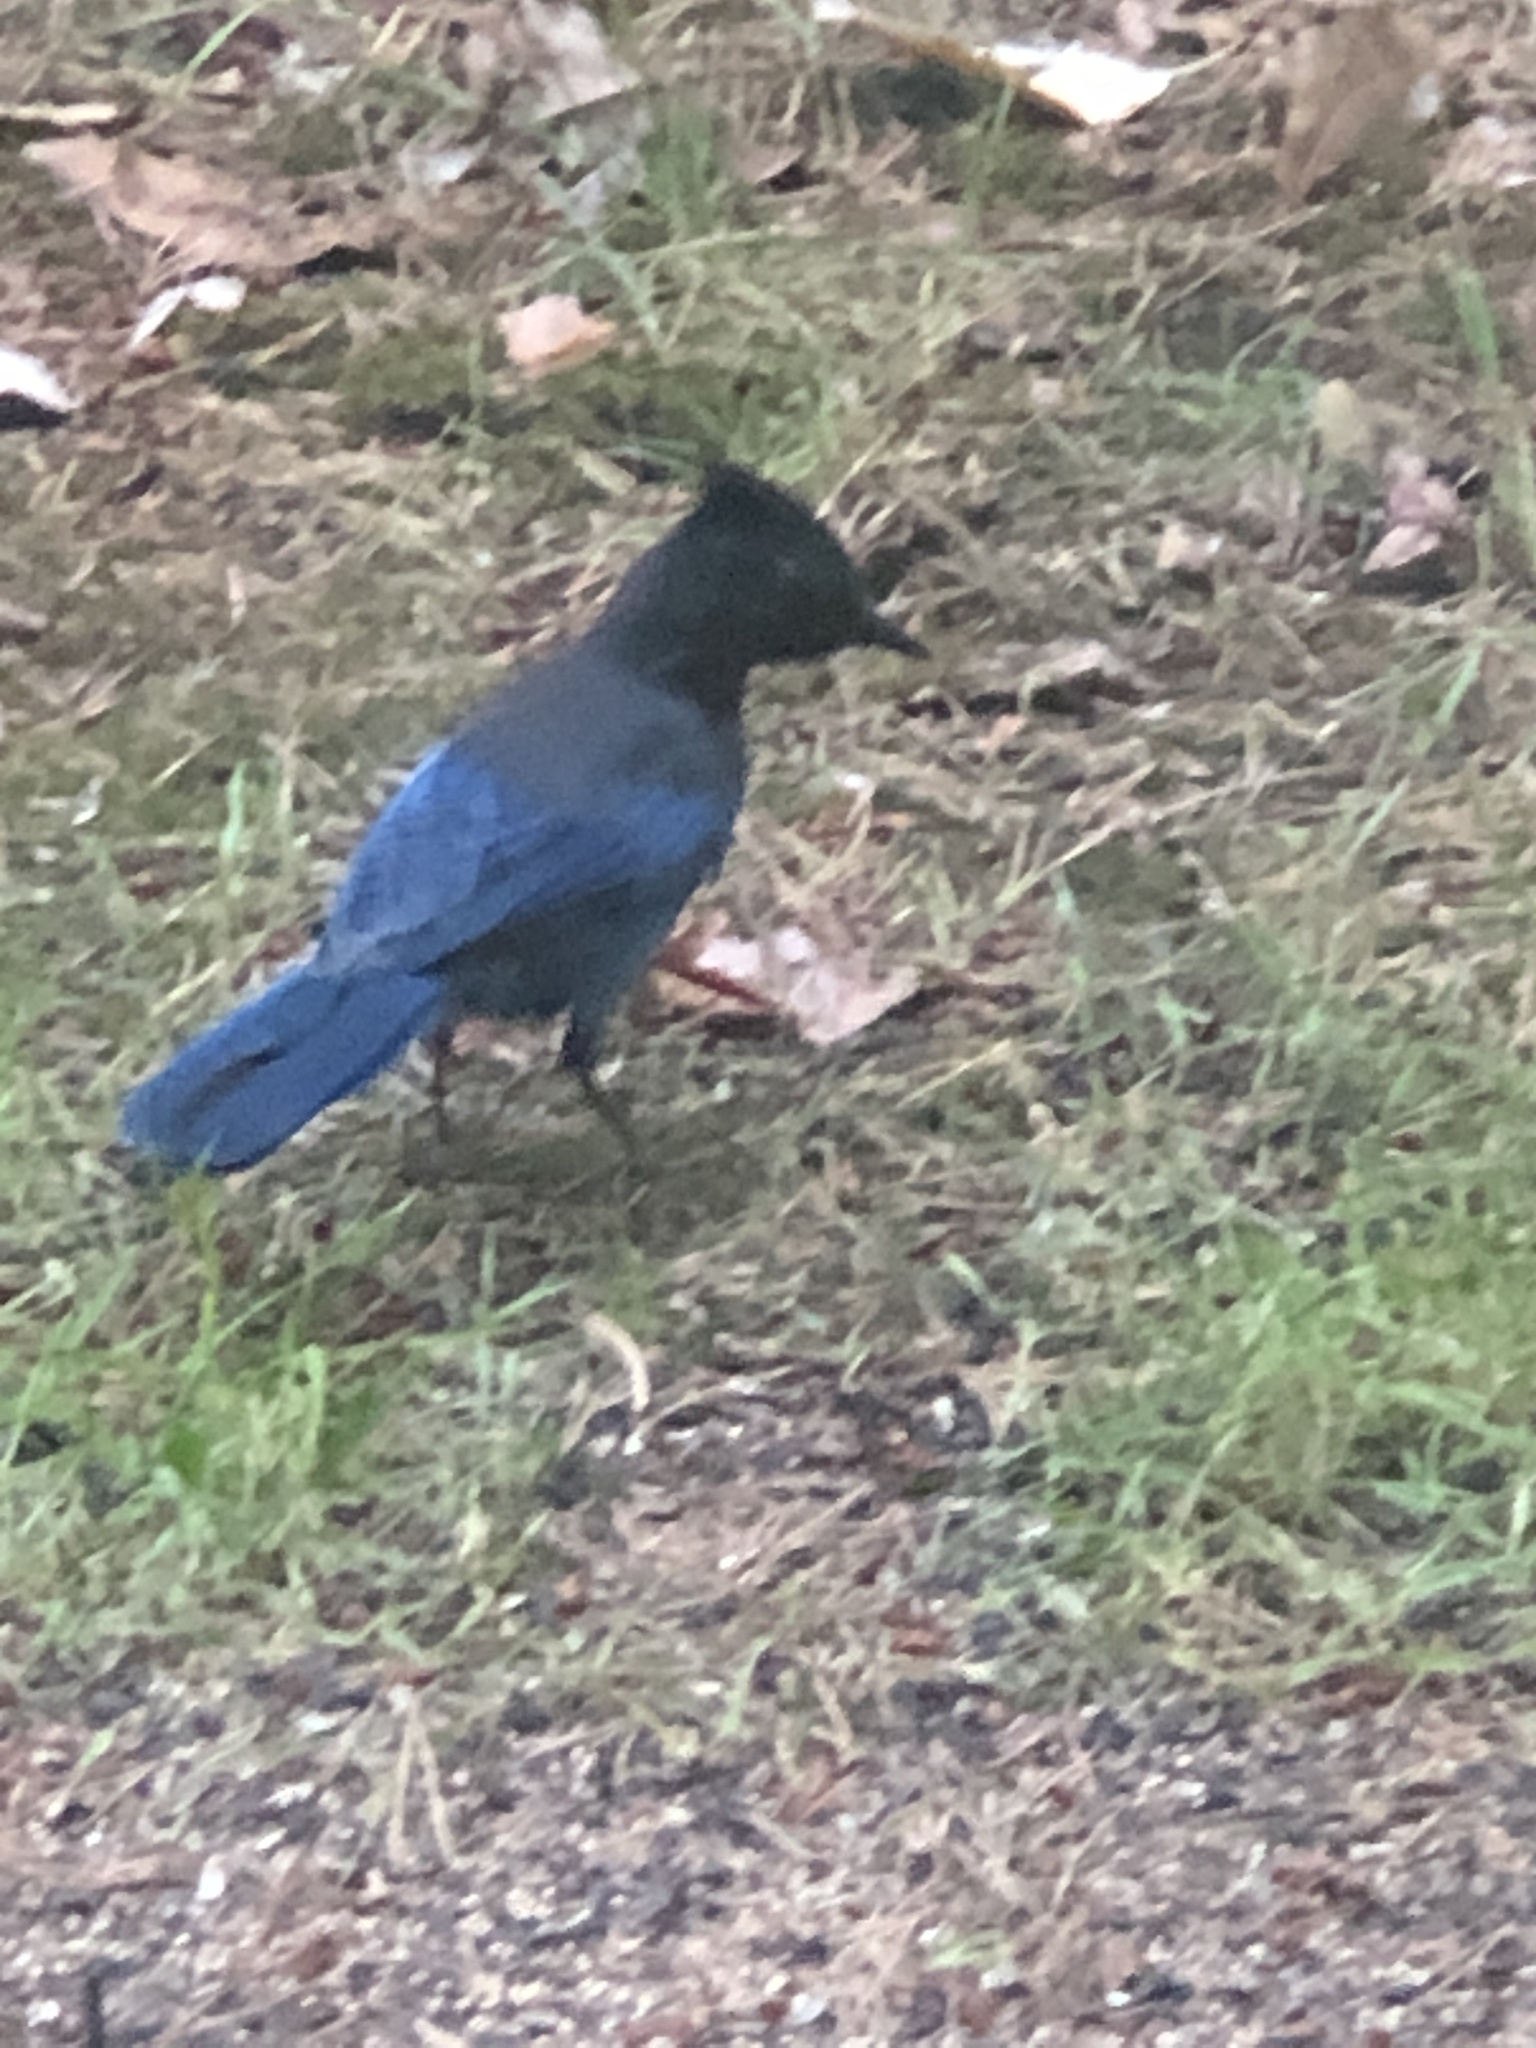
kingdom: Animalia
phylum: Chordata
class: Aves
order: Passeriformes
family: Corvidae
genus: Cyanocitta
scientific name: Cyanocitta stelleri
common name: Steller's jay
